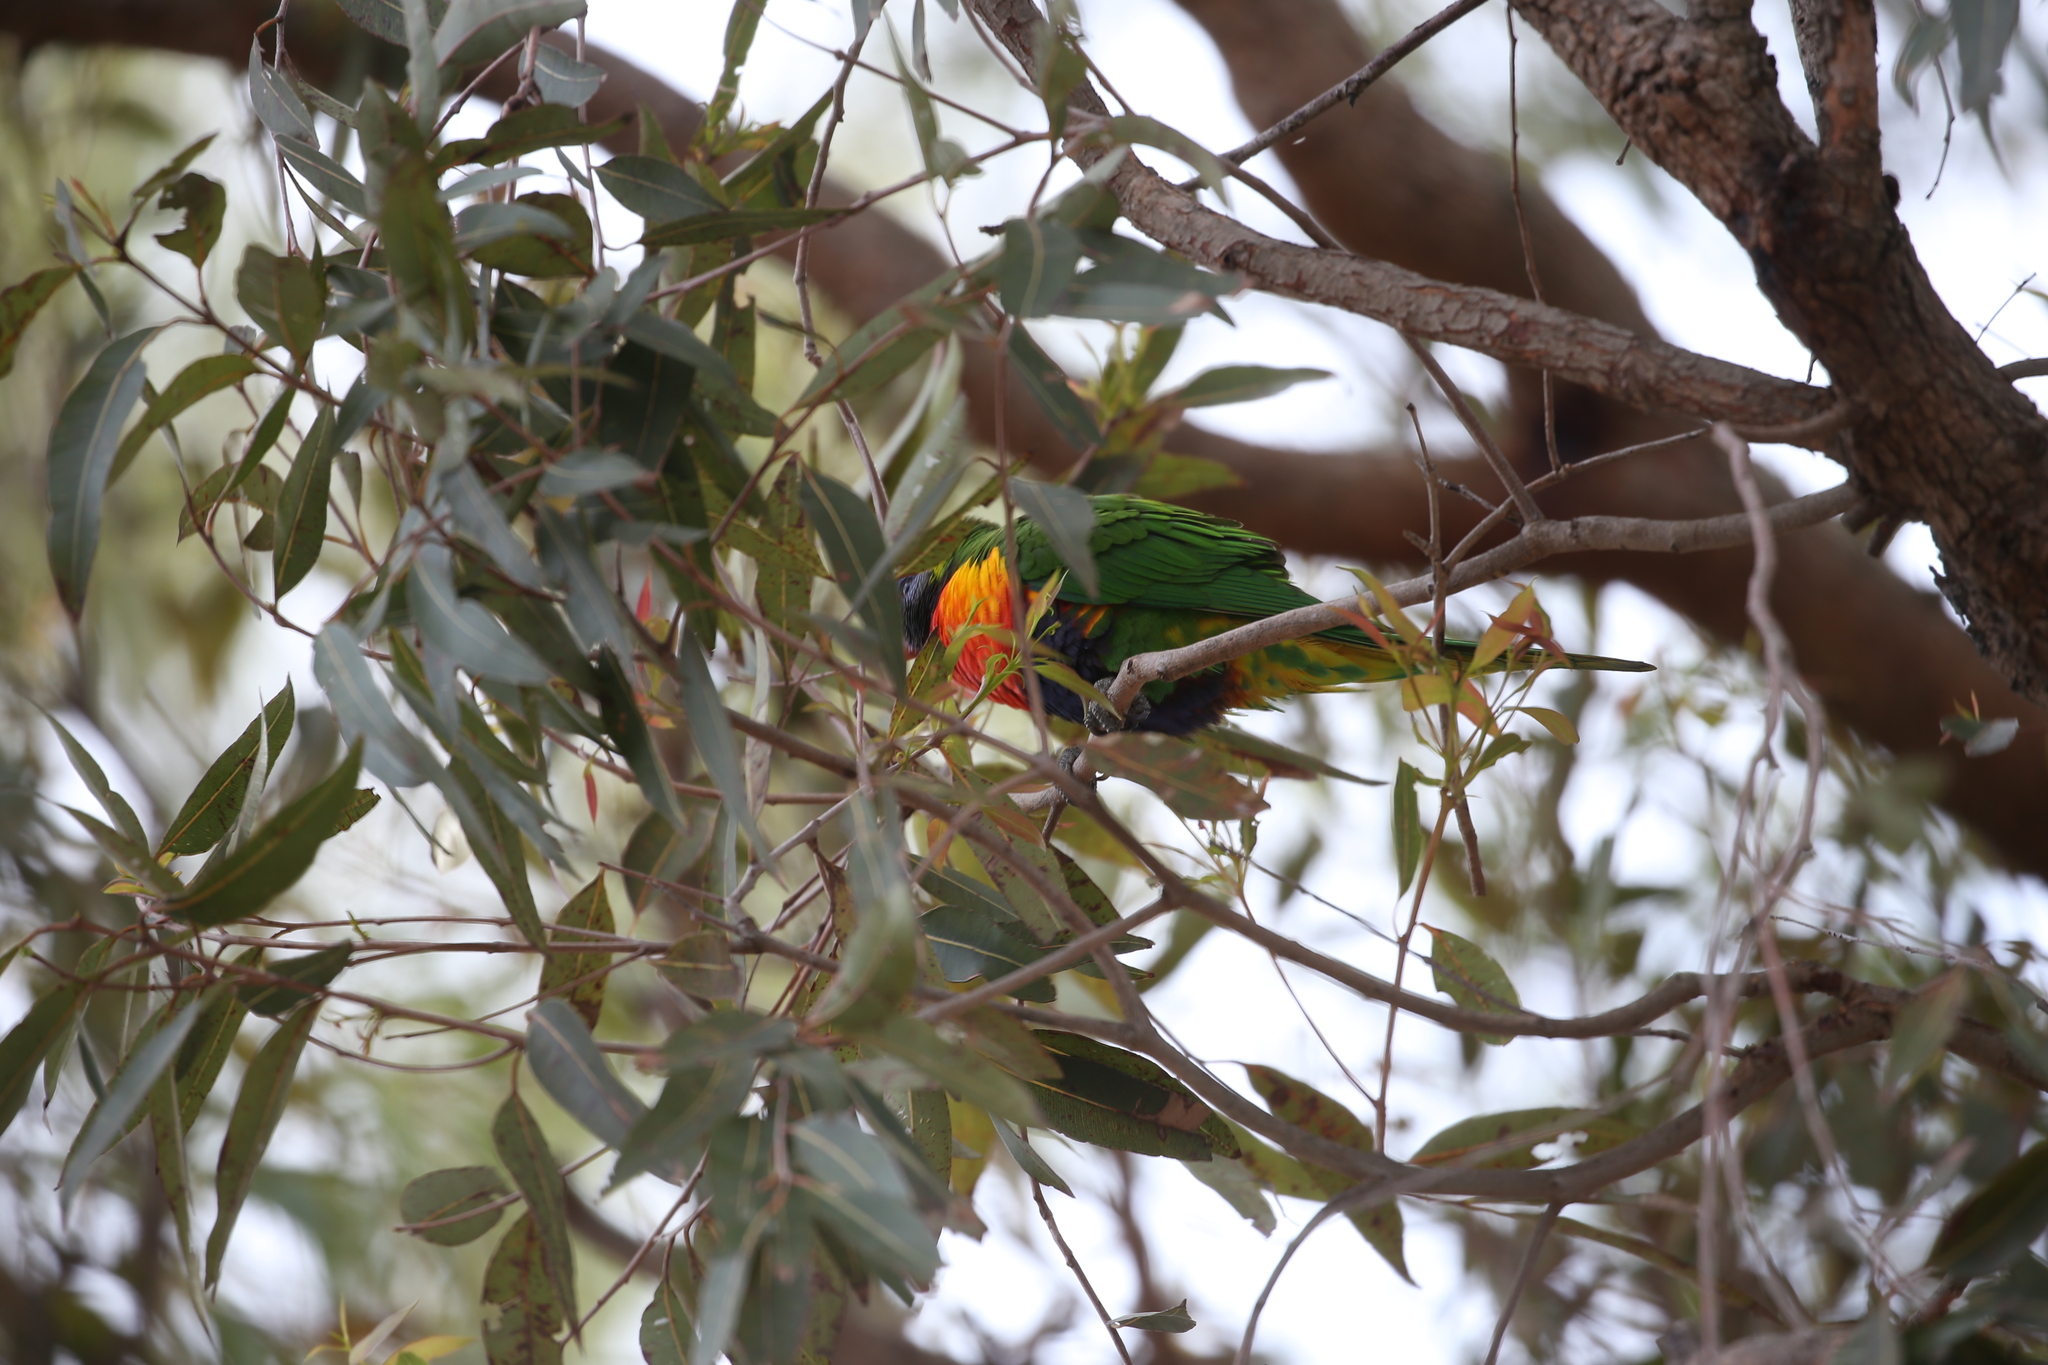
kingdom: Animalia
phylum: Chordata
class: Aves
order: Psittaciformes
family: Psittacidae
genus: Trichoglossus
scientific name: Trichoglossus haematodus
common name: Coconut lorikeet
